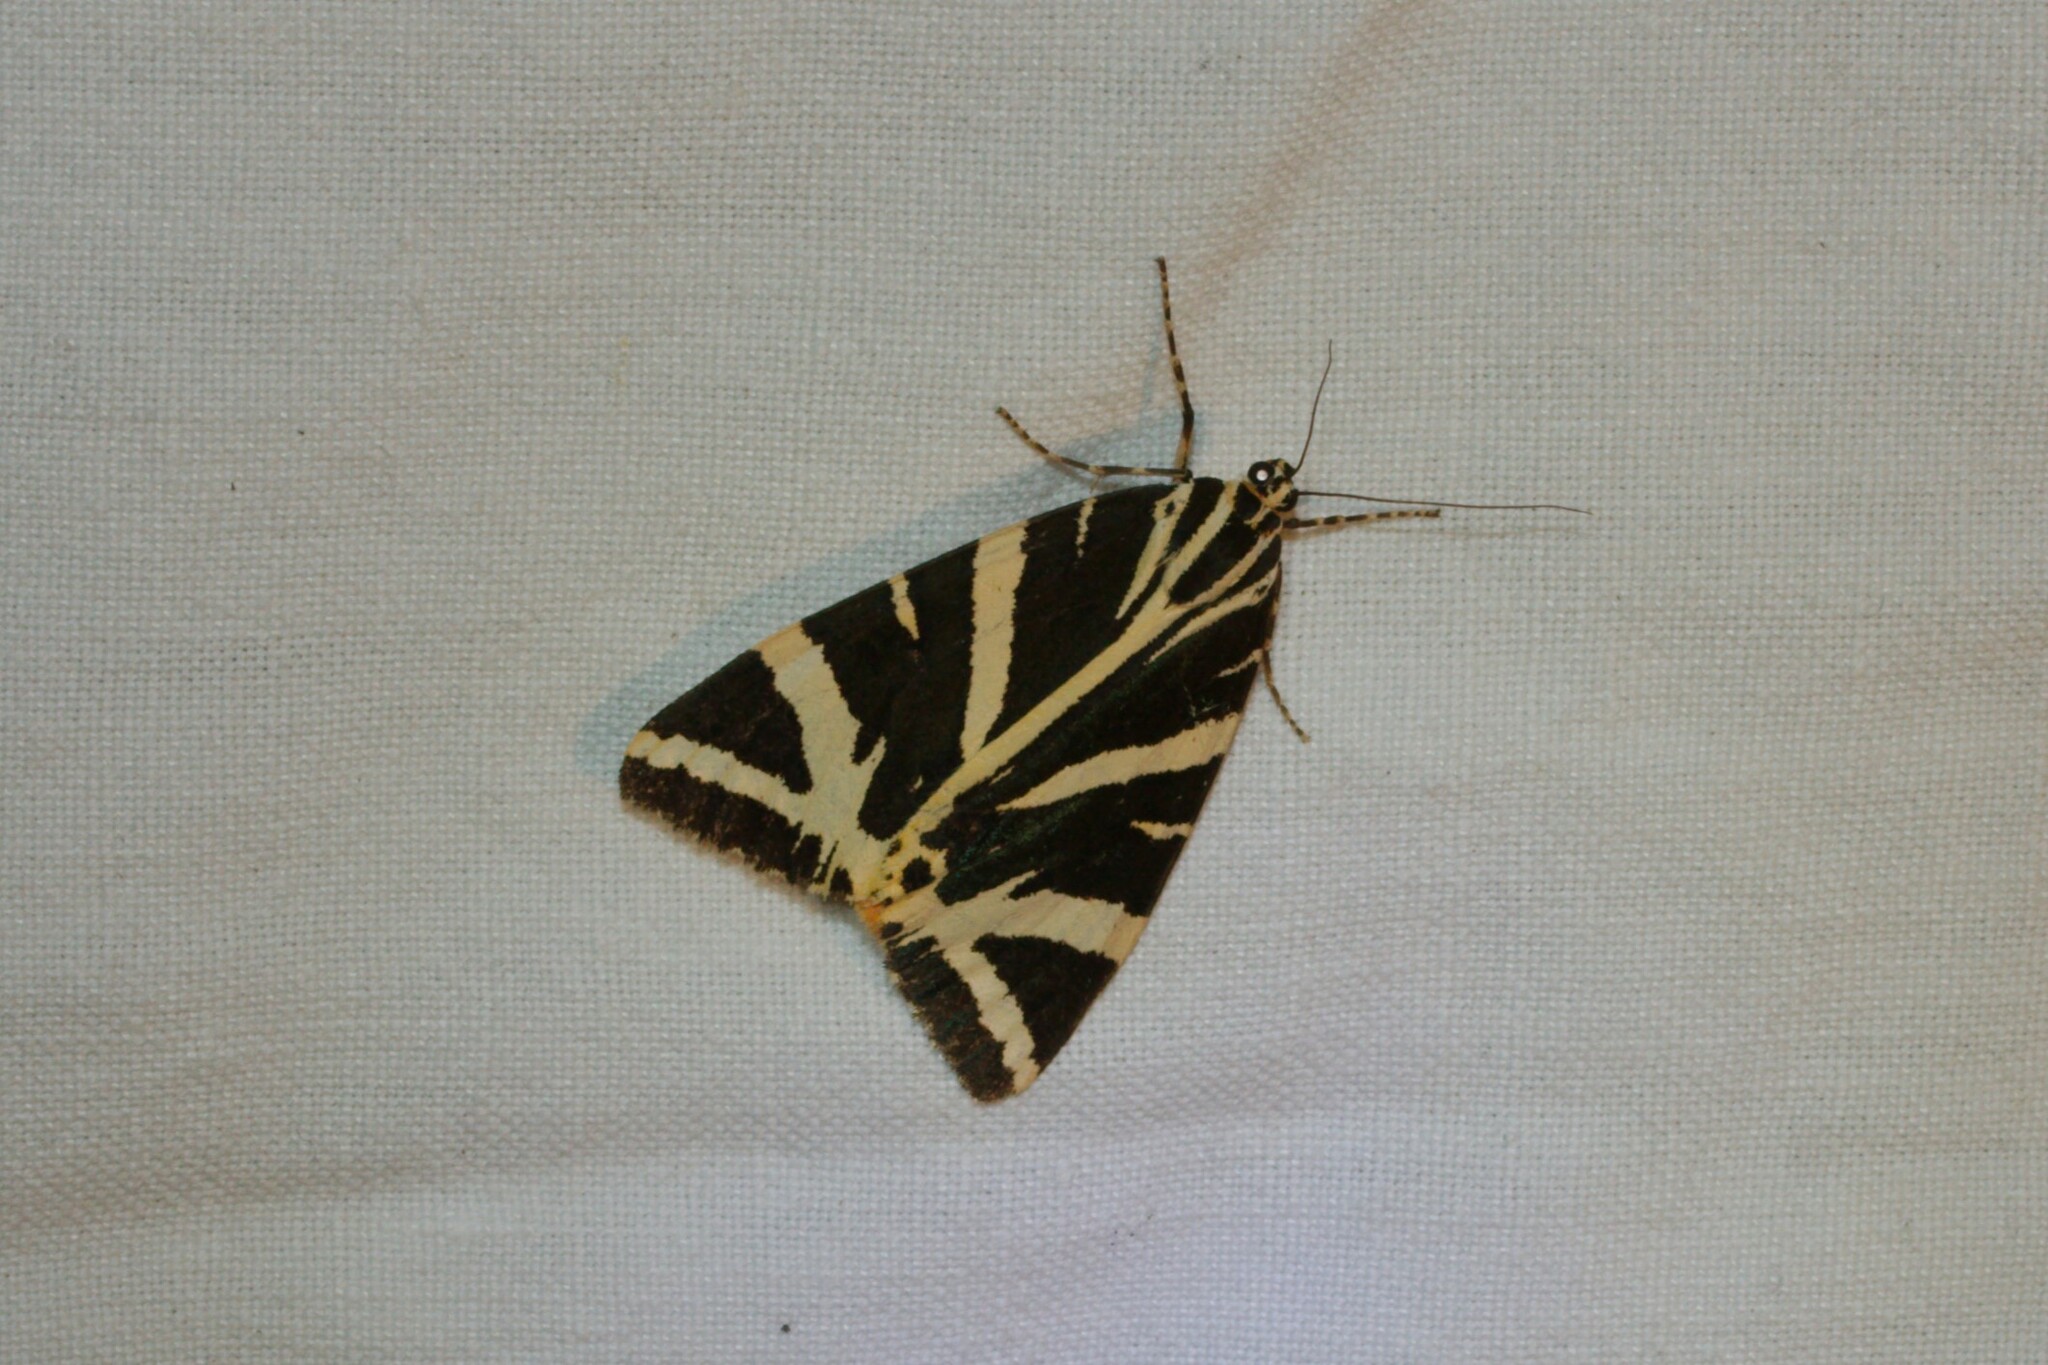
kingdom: Animalia
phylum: Arthropoda
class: Insecta
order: Lepidoptera
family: Erebidae
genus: Euplagia
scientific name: Euplagia quadripunctaria
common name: Jersey tiger
